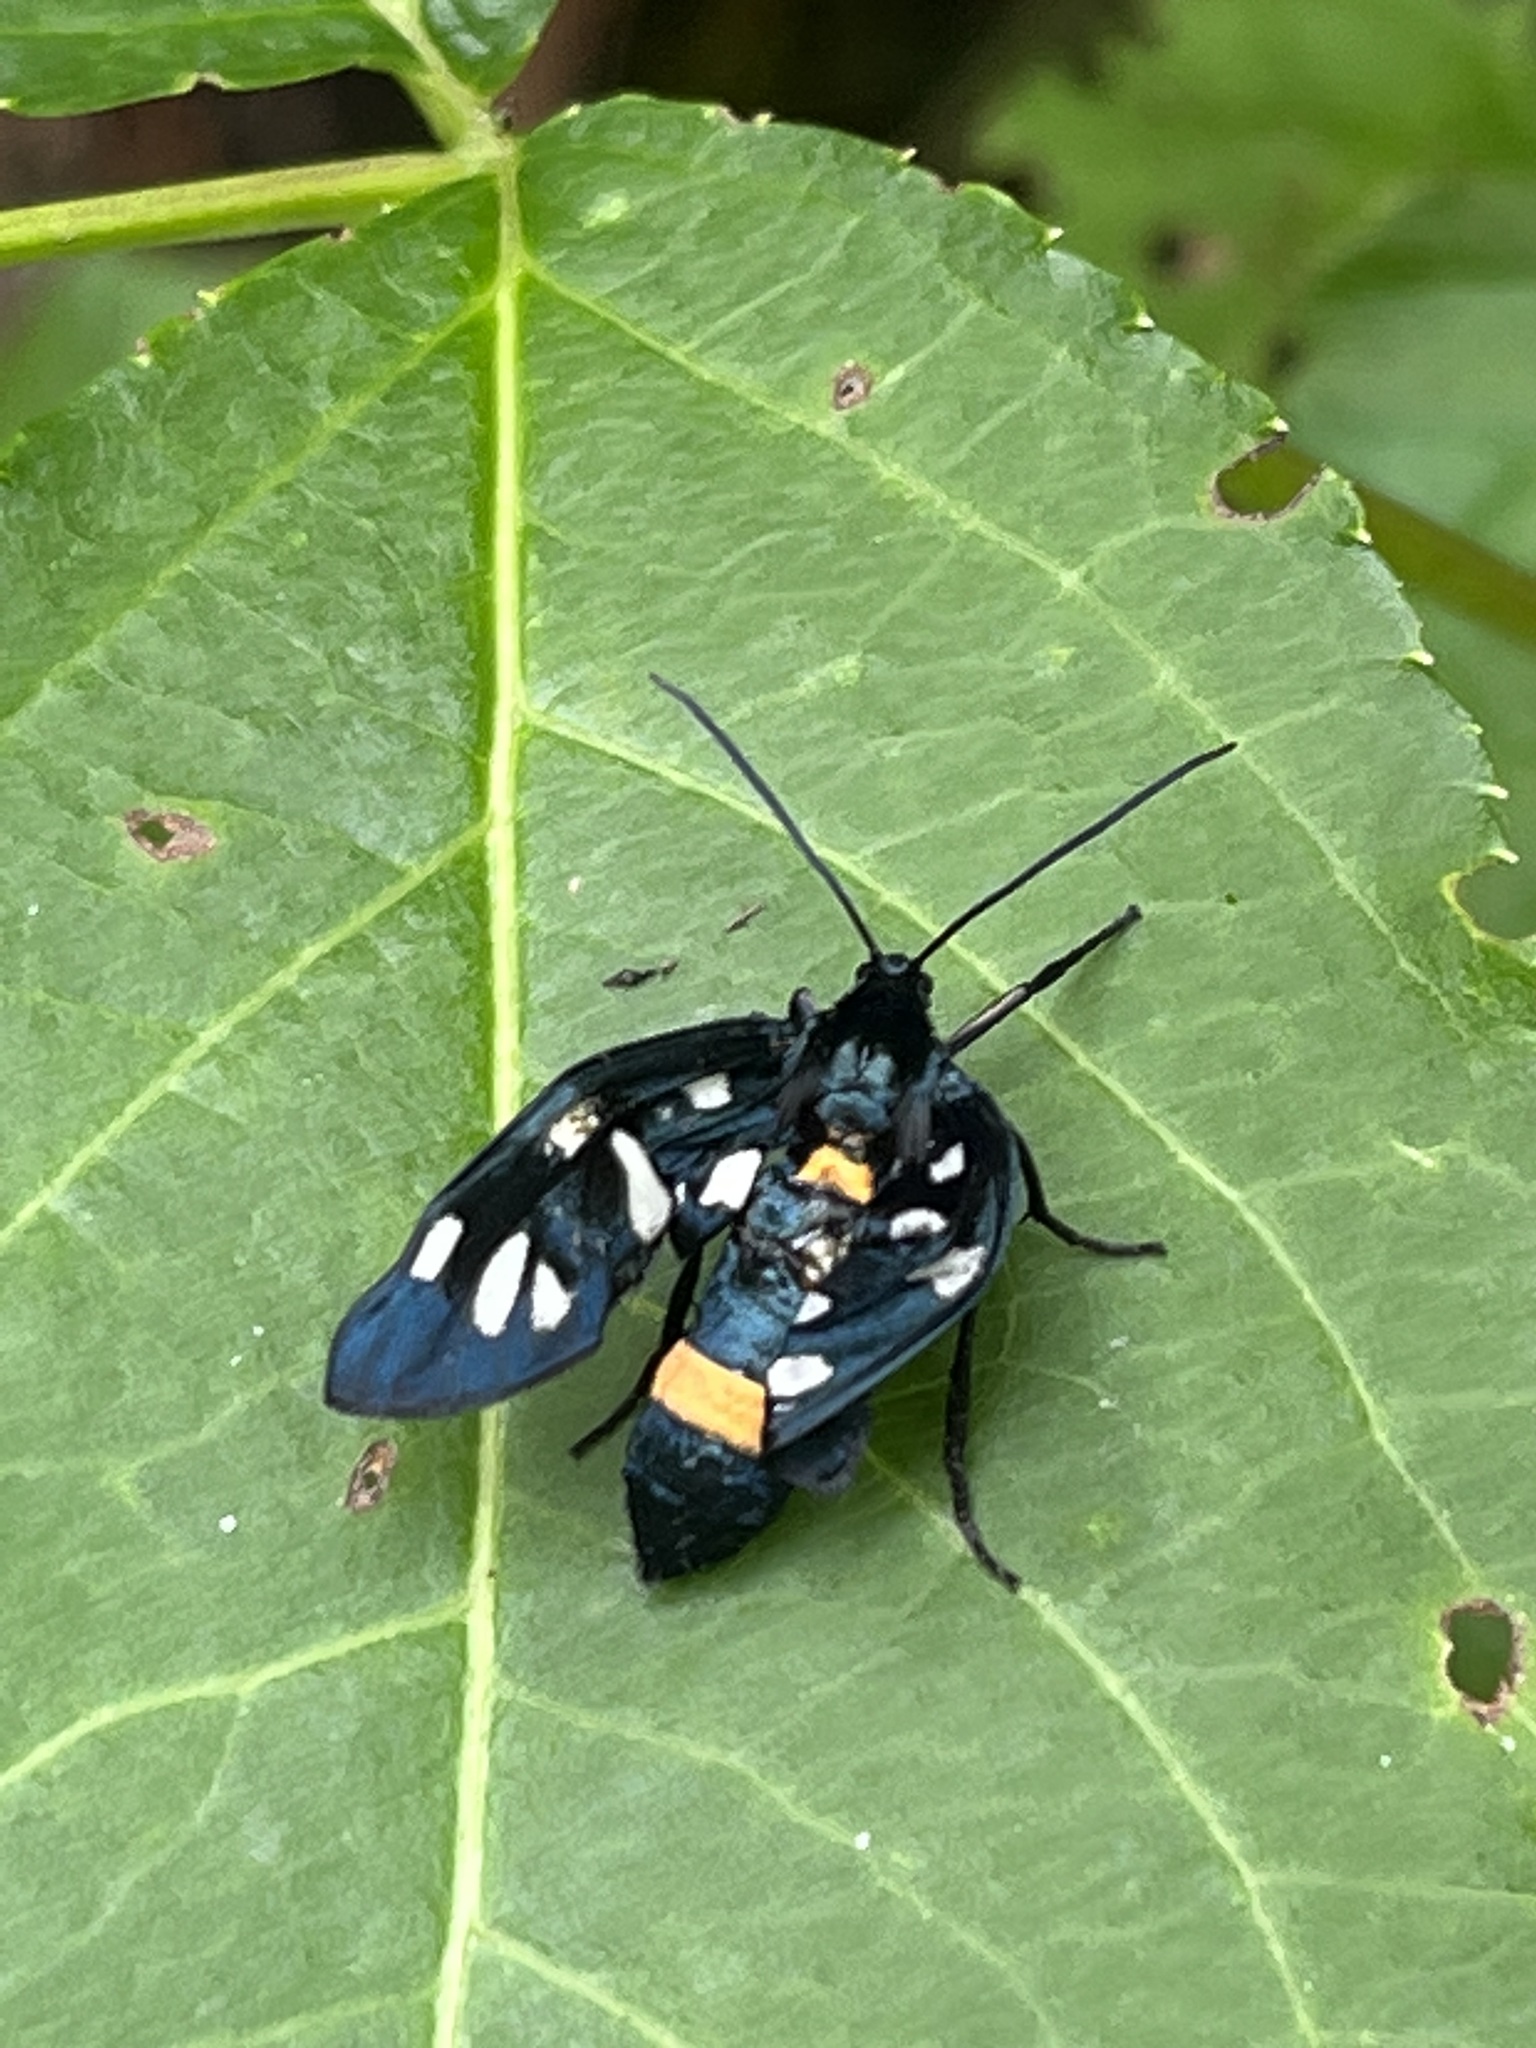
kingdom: Animalia
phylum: Arthropoda
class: Insecta
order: Lepidoptera
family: Erebidae
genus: Amata
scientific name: Amata nigricornis
